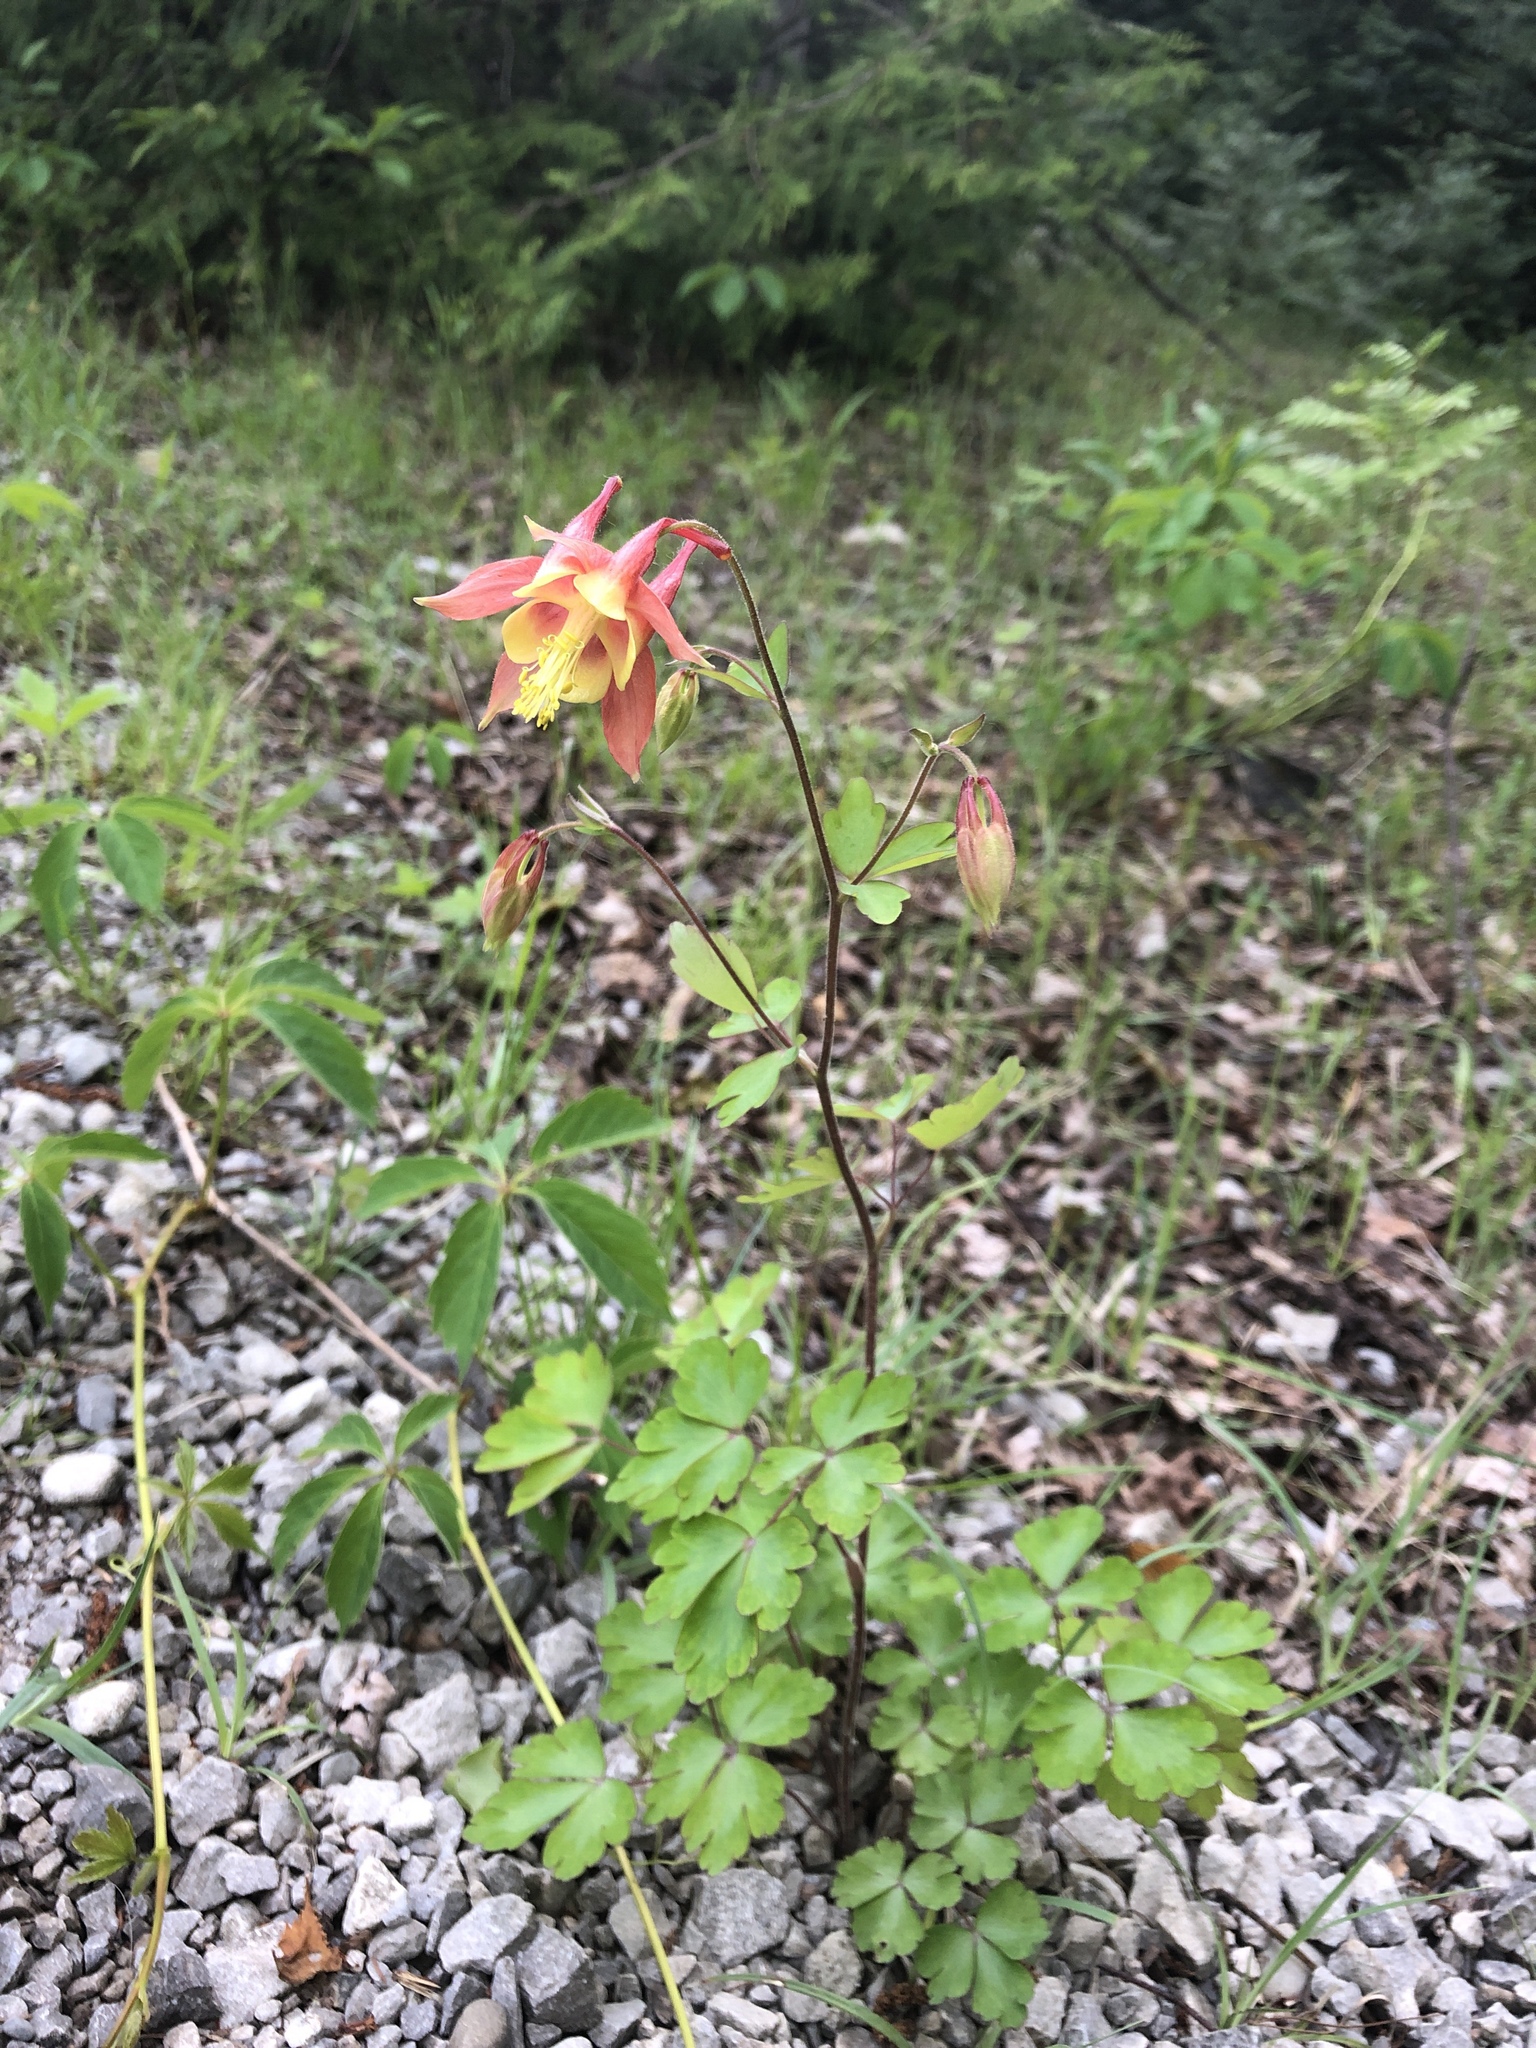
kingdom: Plantae
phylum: Tracheophyta
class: Magnoliopsida
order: Ranunculales
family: Ranunculaceae
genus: Aquilegia
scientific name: Aquilegia canadensis
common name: American columbine
